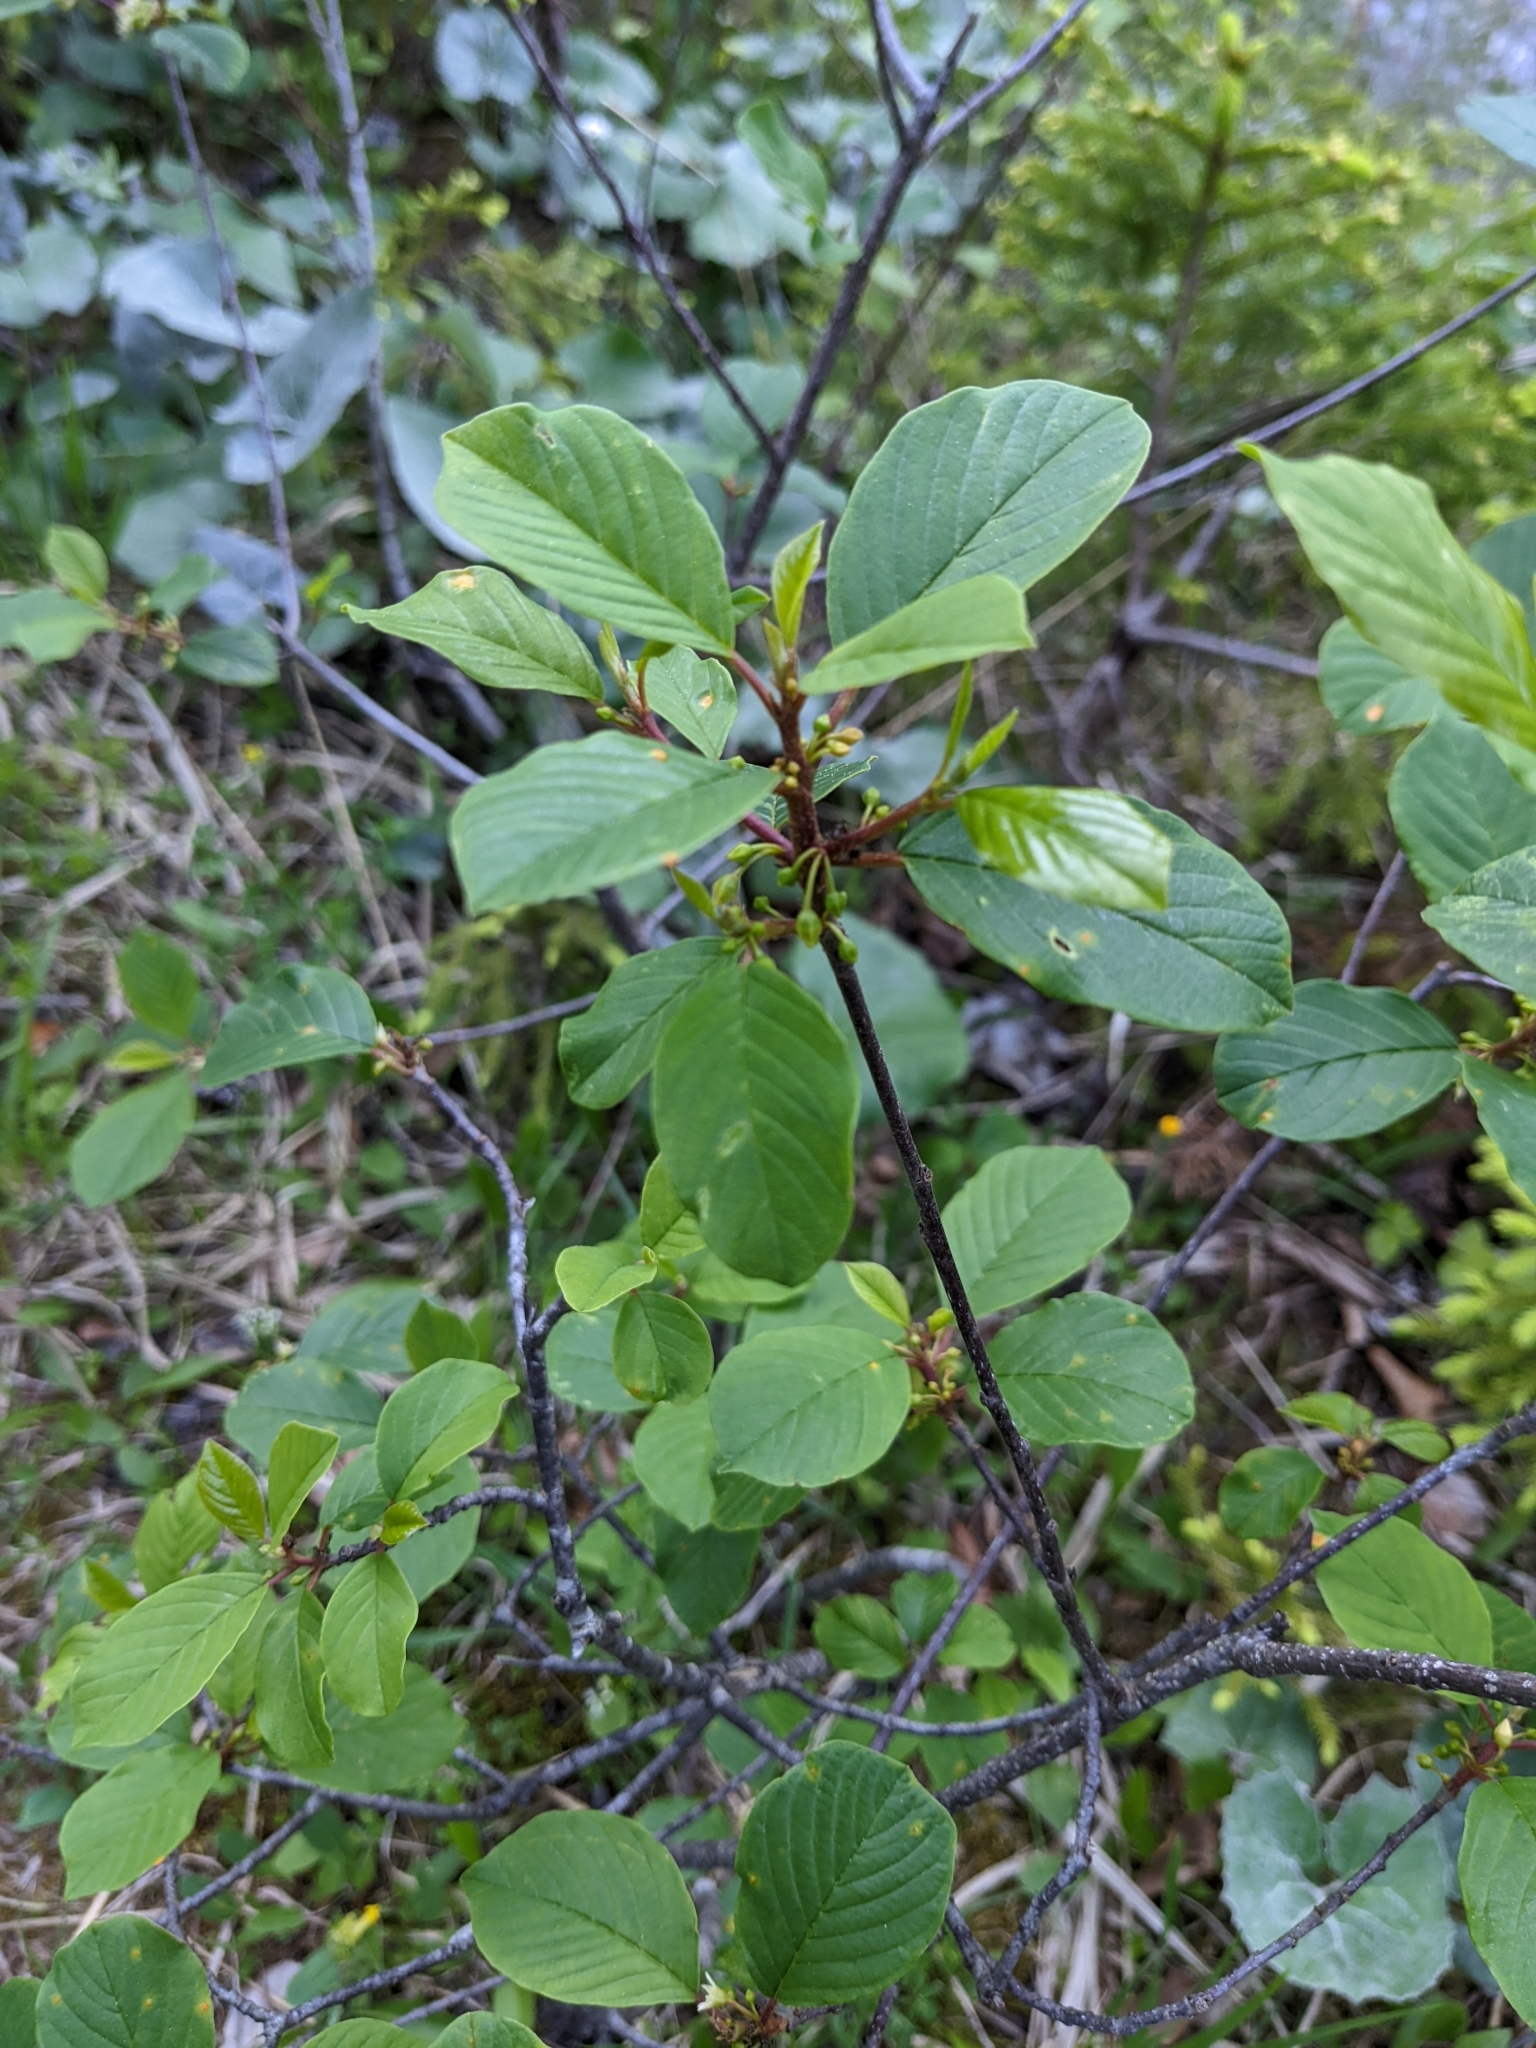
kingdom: Plantae
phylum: Tracheophyta
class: Magnoliopsida
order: Rosales
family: Rhamnaceae
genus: Frangula
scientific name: Frangula alnus
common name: Alder buckthorn
